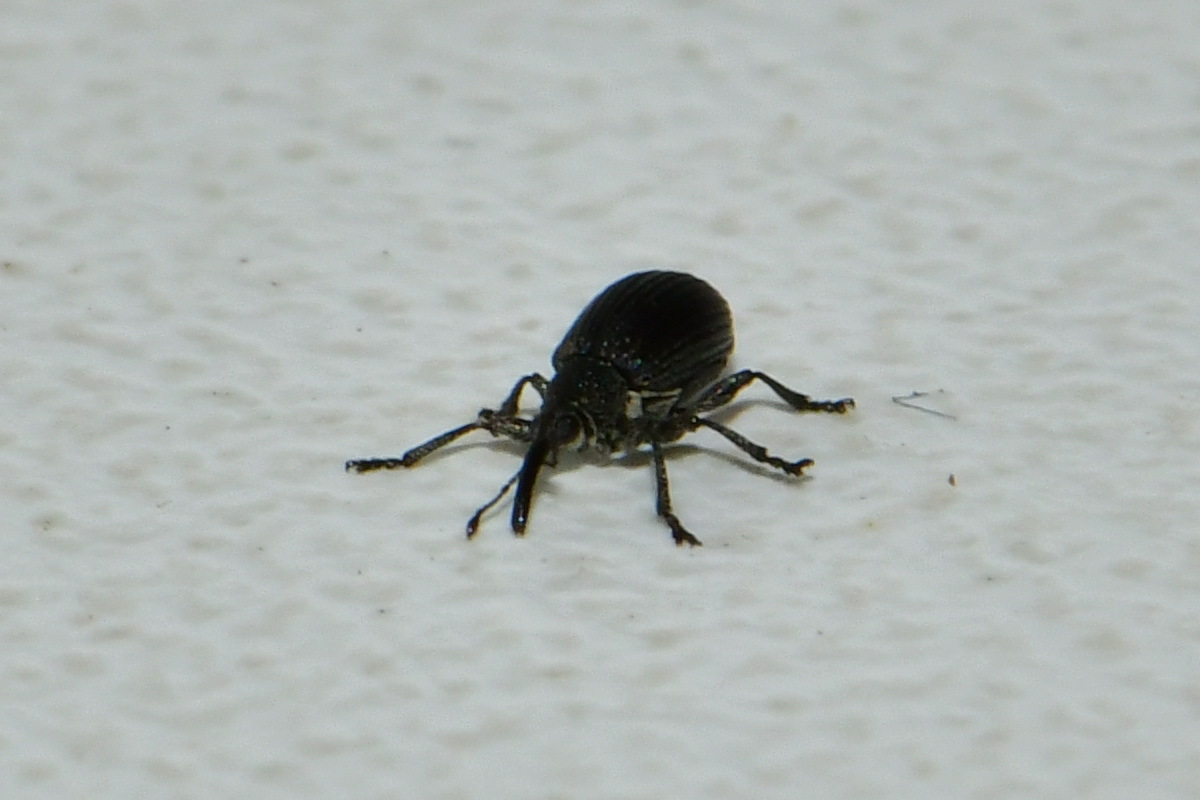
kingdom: Animalia
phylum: Arthropoda
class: Insecta
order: Coleoptera
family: Brentidae
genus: Betulapion
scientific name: Betulapion simile
